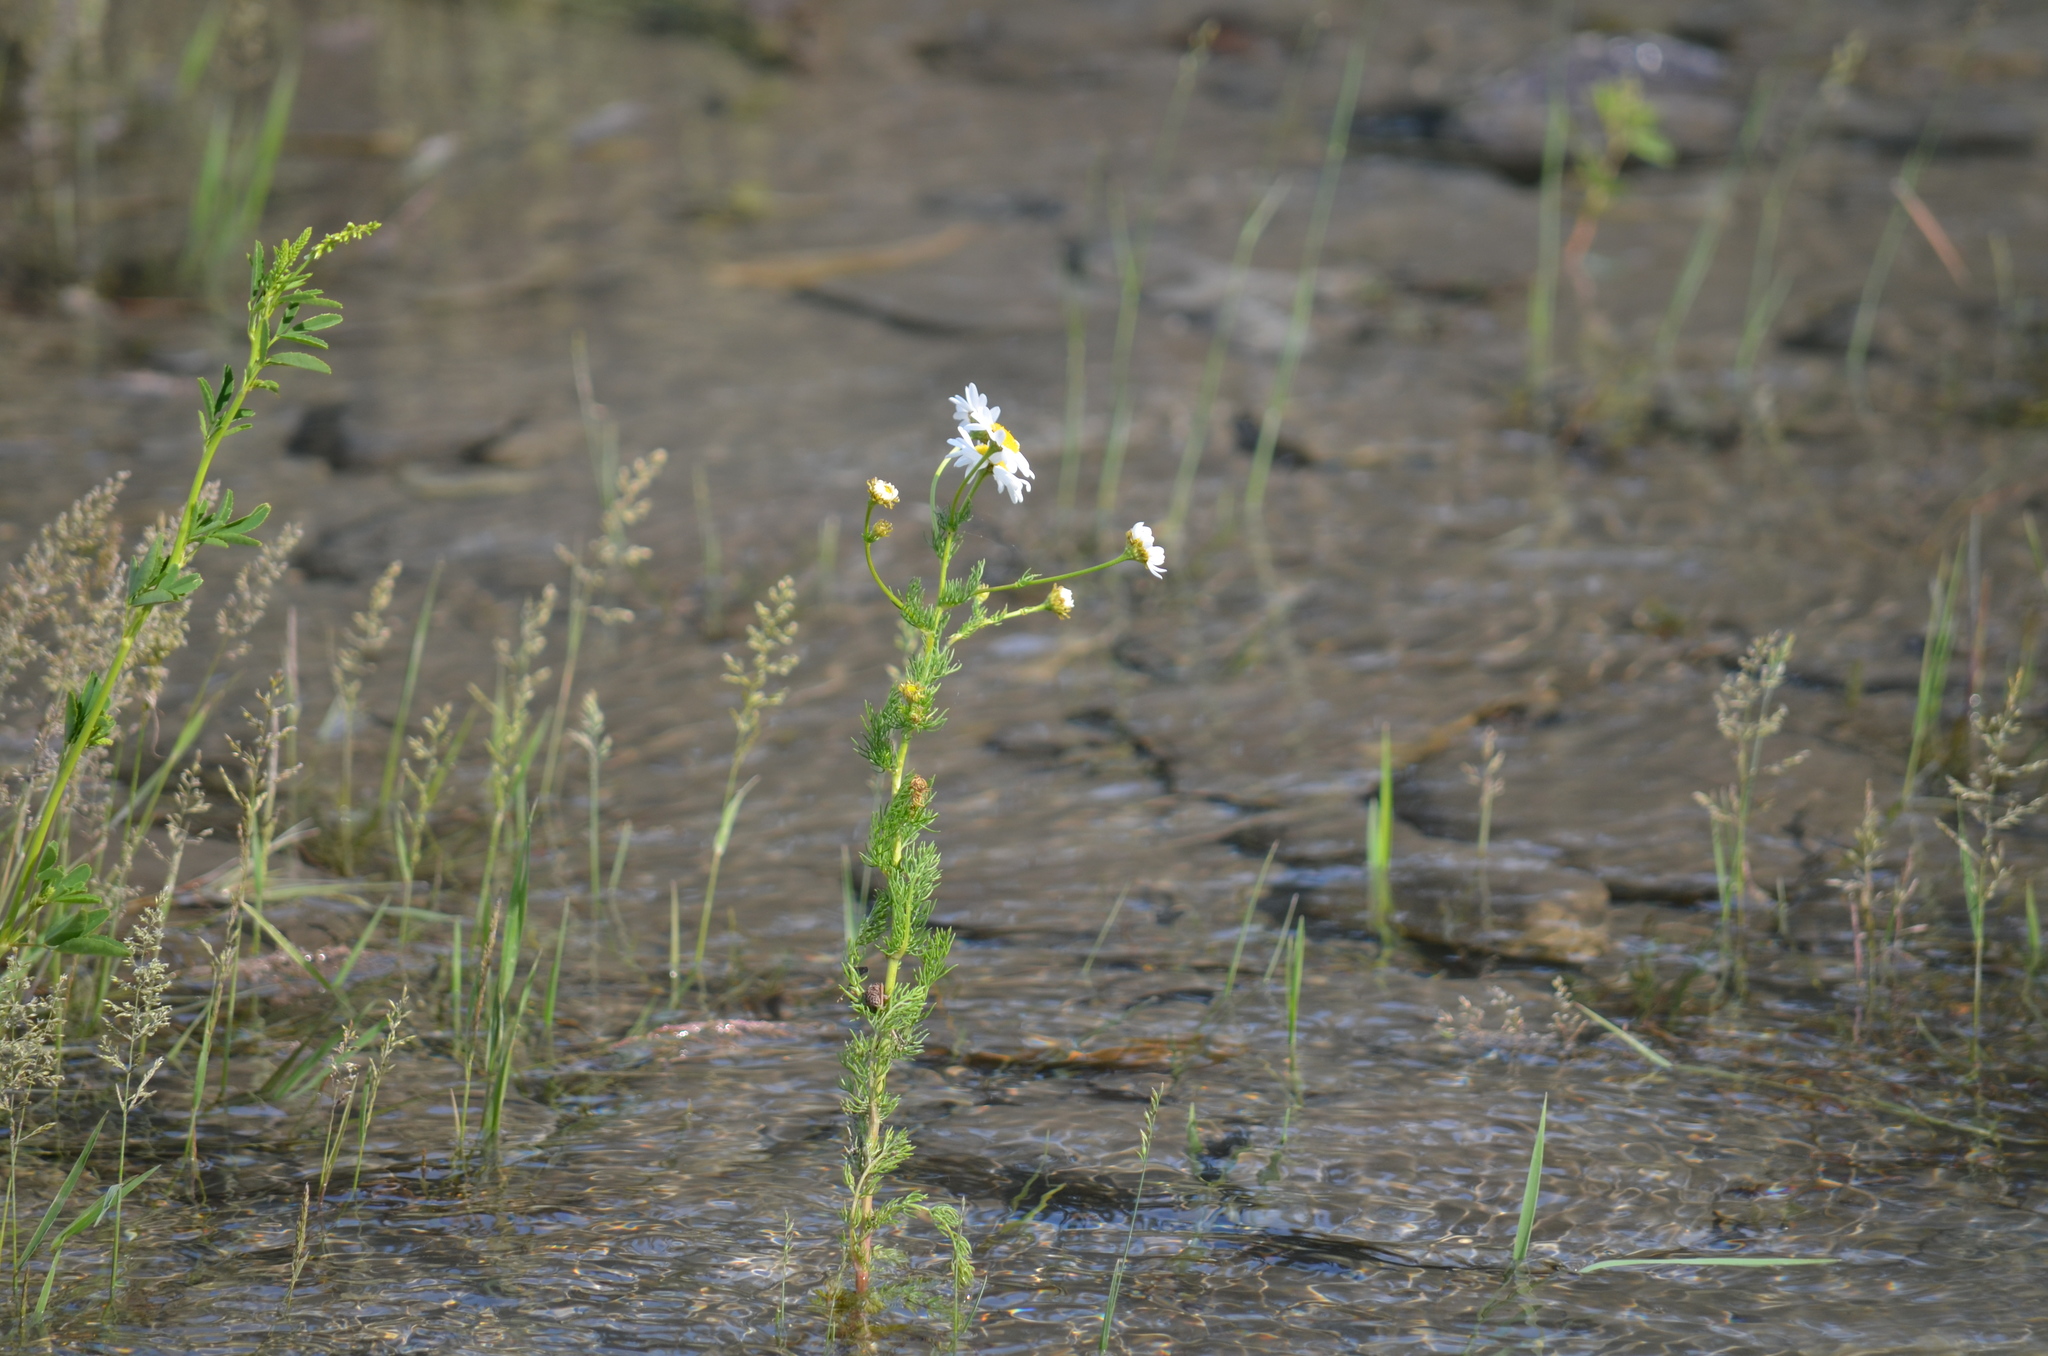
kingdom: Plantae
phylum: Tracheophyta
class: Magnoliopsida
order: Asterales
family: Asteraceae
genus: Tripleurospermum
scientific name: Tripleurospermum inodorum
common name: Scentless mayweed
